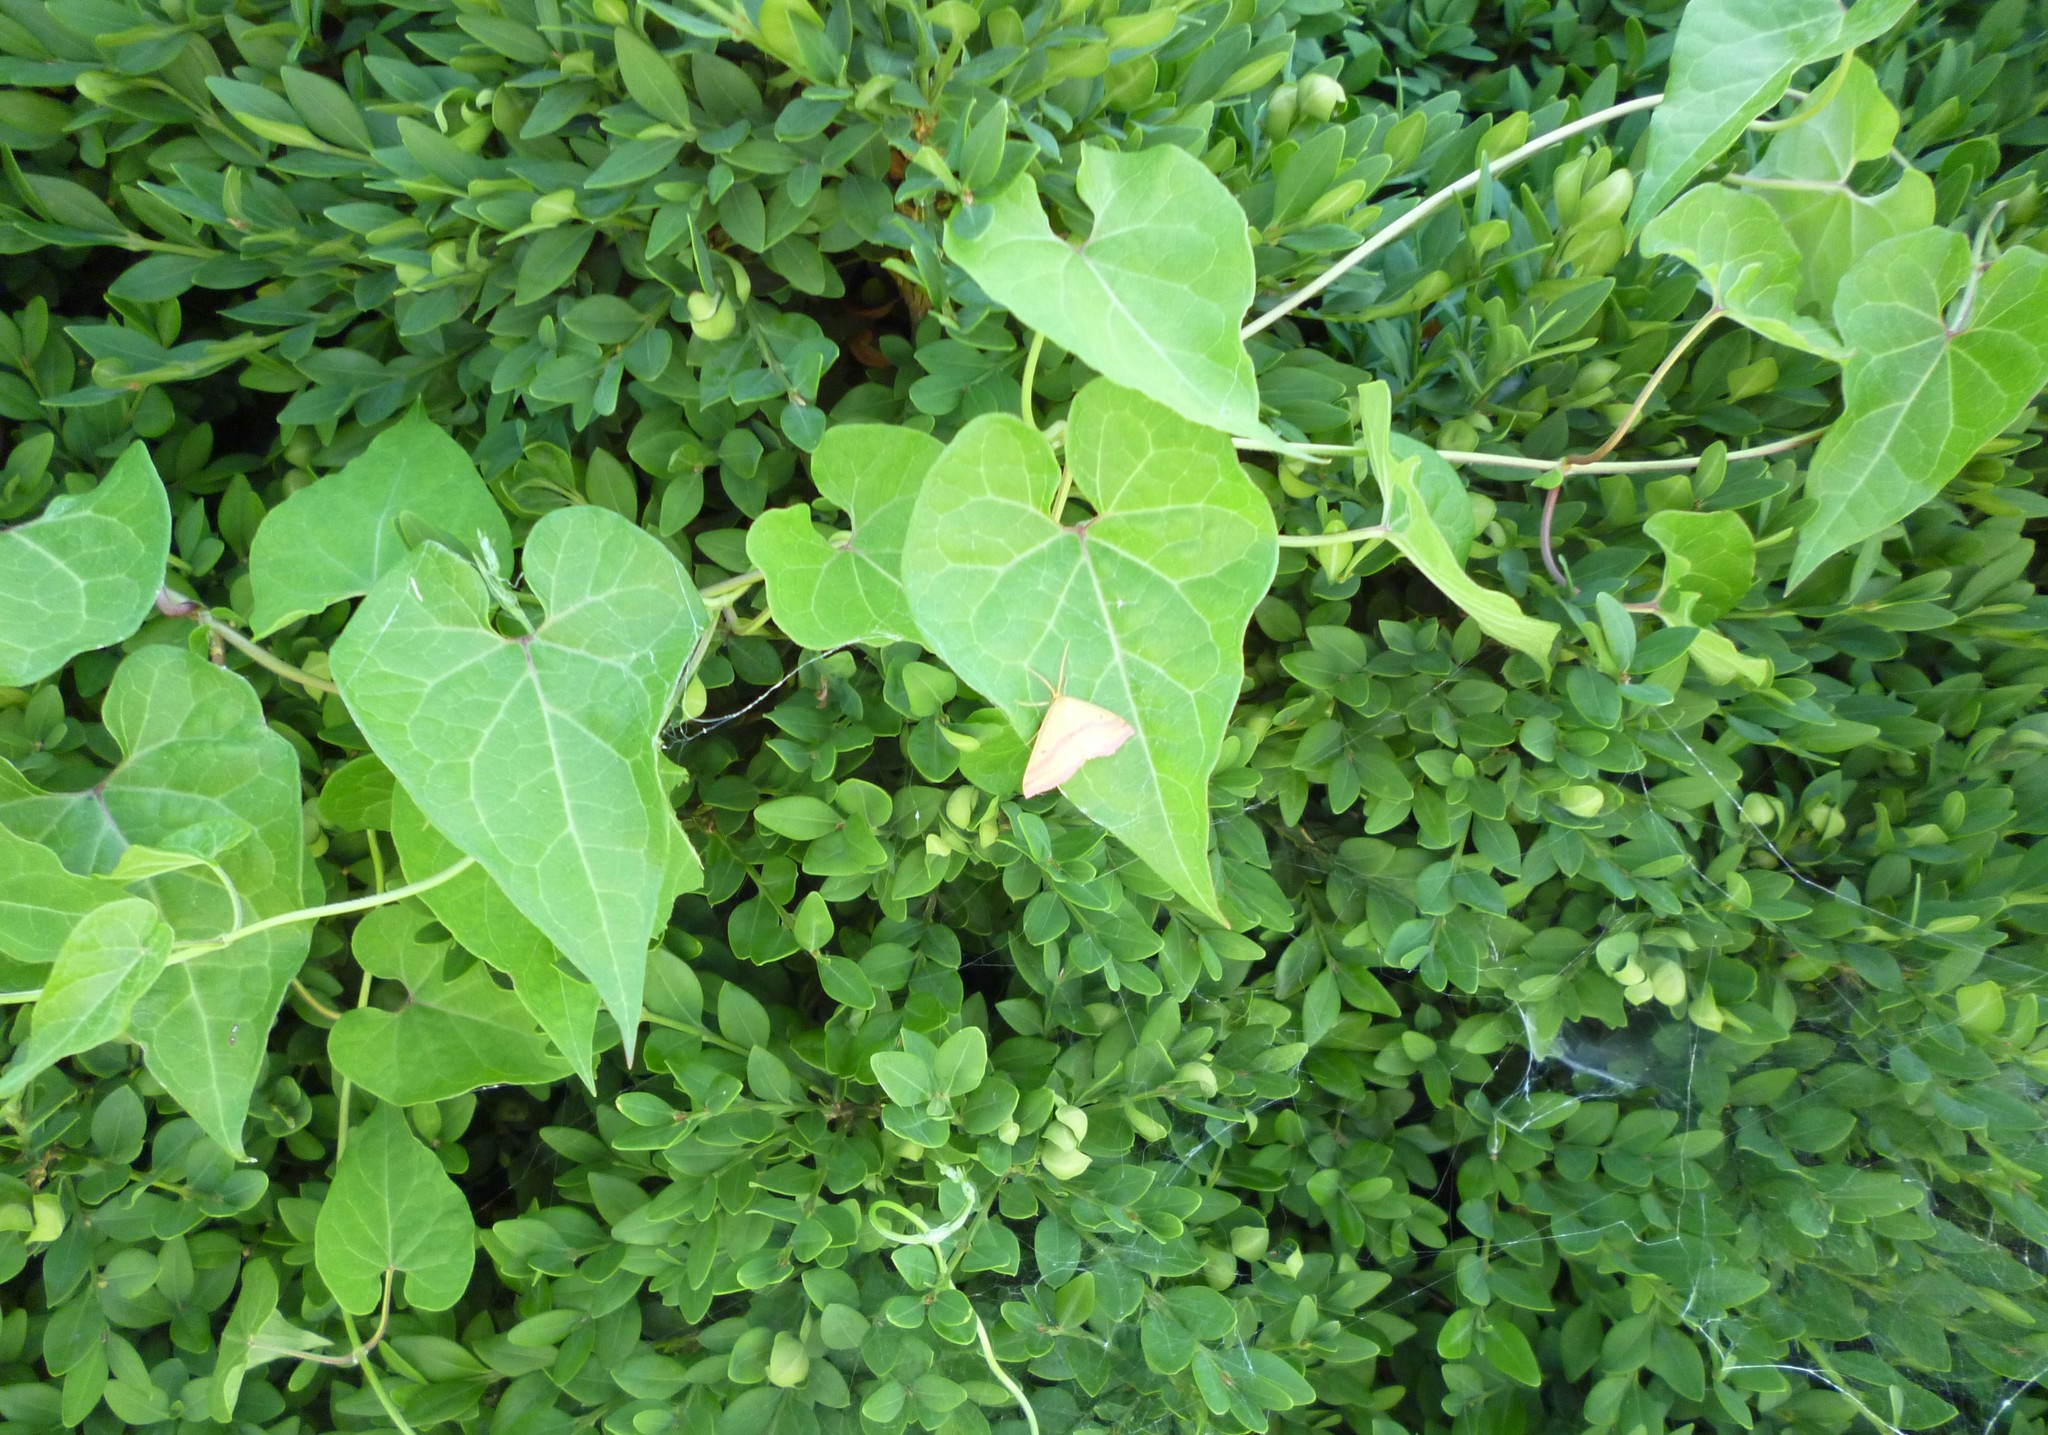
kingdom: Plantae
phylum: Tracheophyta
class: Magnoliopsida
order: Gentianales
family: Apocynaceae
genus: Cynanchum
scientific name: Cynanchum laeve
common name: Sandvine
